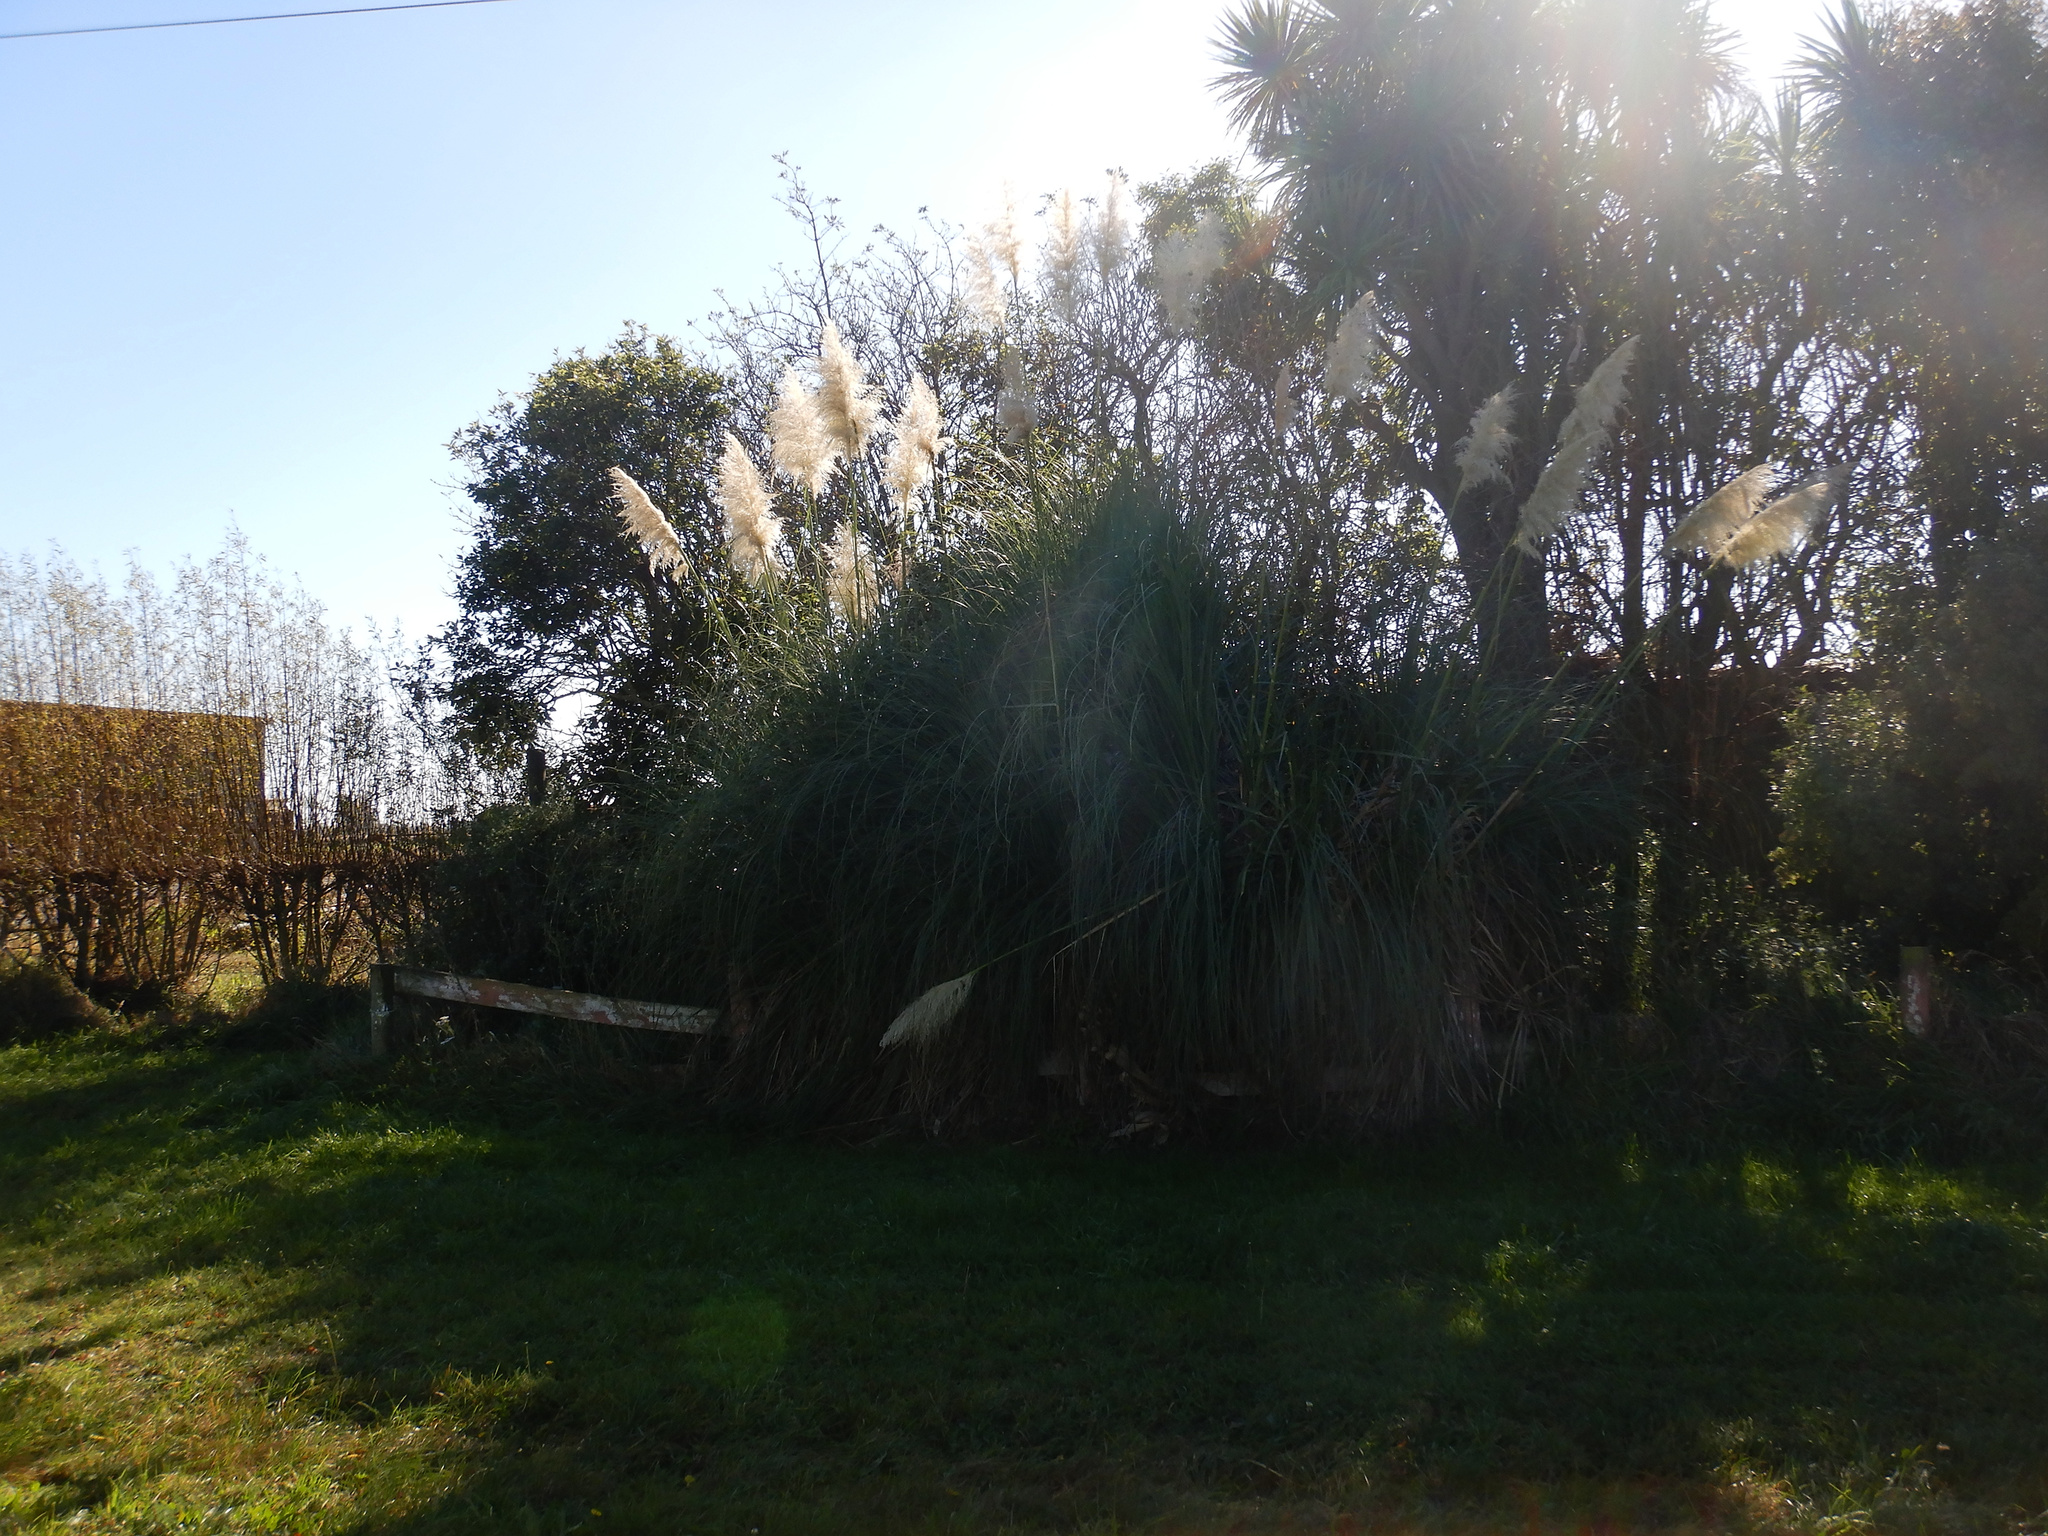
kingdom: Plantae
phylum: Tracheophyta
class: Liliopsida
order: Poales
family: Poaceae
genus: Cortaderia
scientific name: Cortaderia selloana
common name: Uruguayan pampas grass
